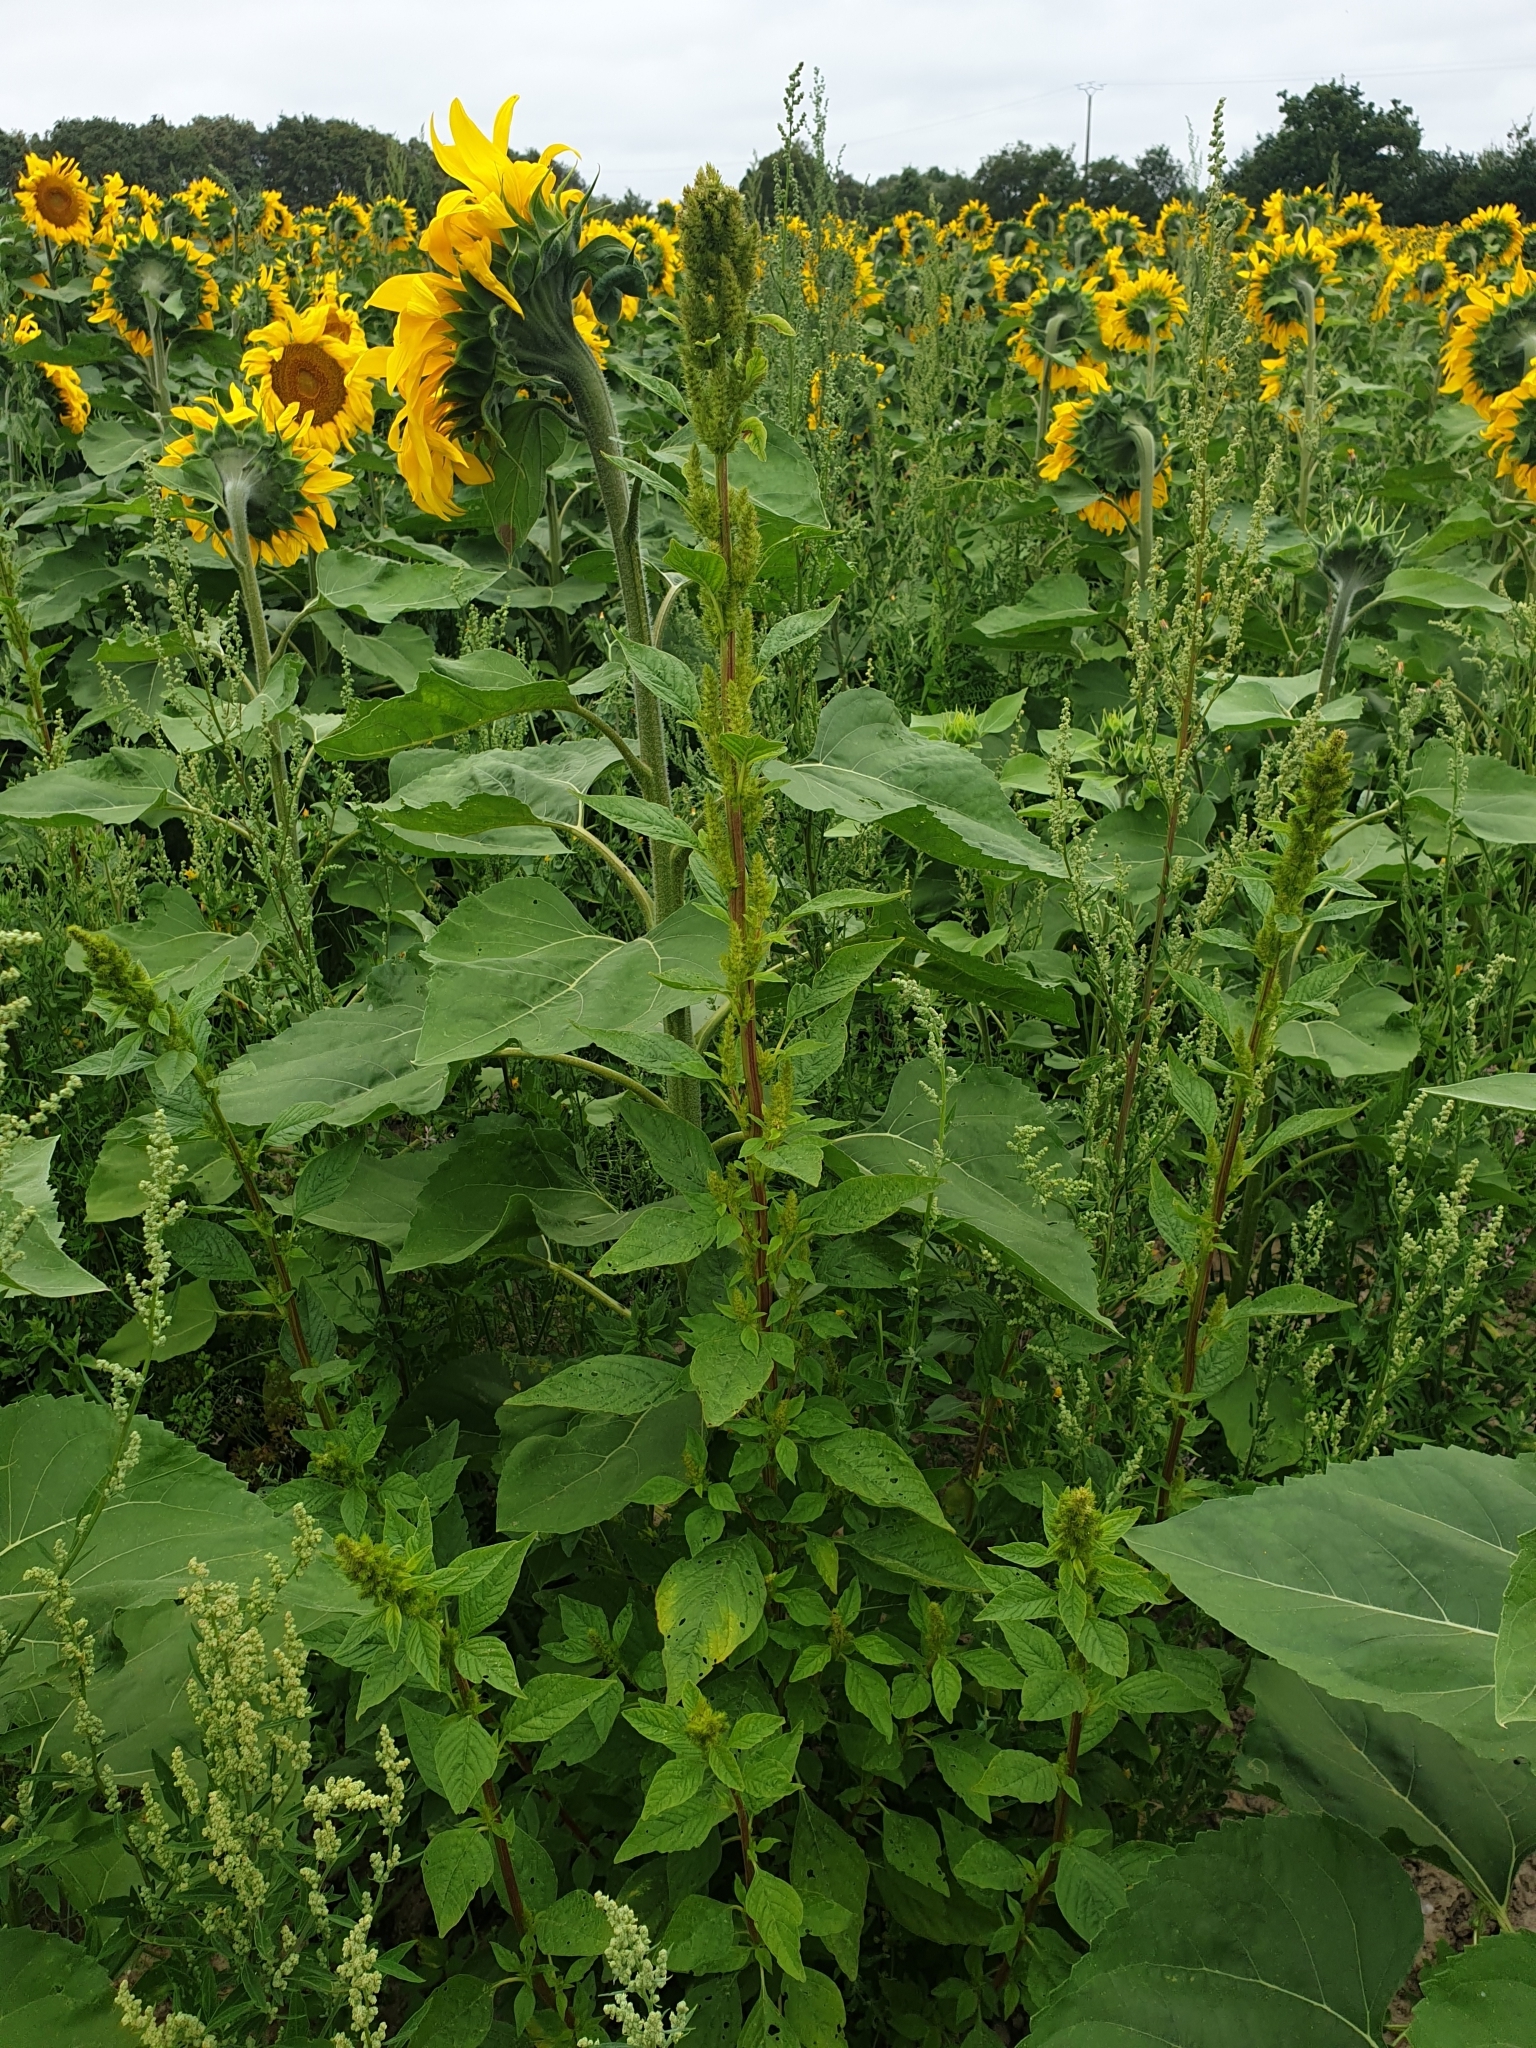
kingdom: Plantae
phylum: Tracheophyta
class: Magnoliopsida
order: Caryophyllales
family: Amaranthaceae
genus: Amaranthus
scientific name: Amaranthus hybridus
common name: Green amaranth
